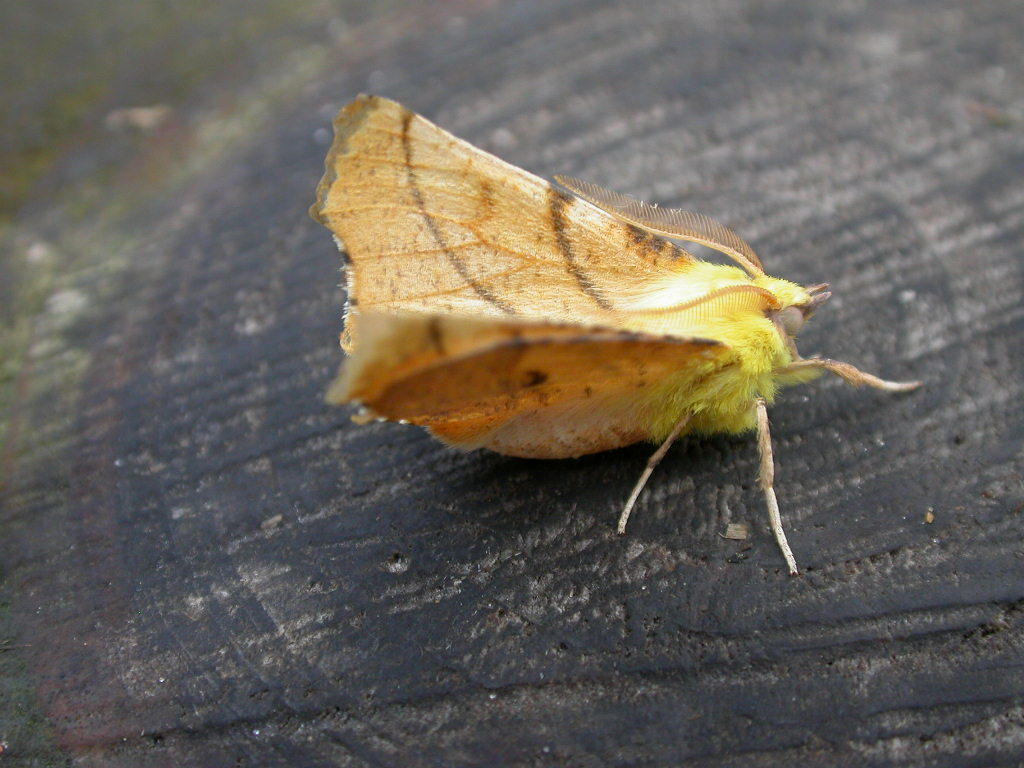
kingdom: Animalia
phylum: Arthropoda
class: Insecta
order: Lepidoptera
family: Geometridae
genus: Ennomos
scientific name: Ennomos alniaria
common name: Canary-shouldered thorn
